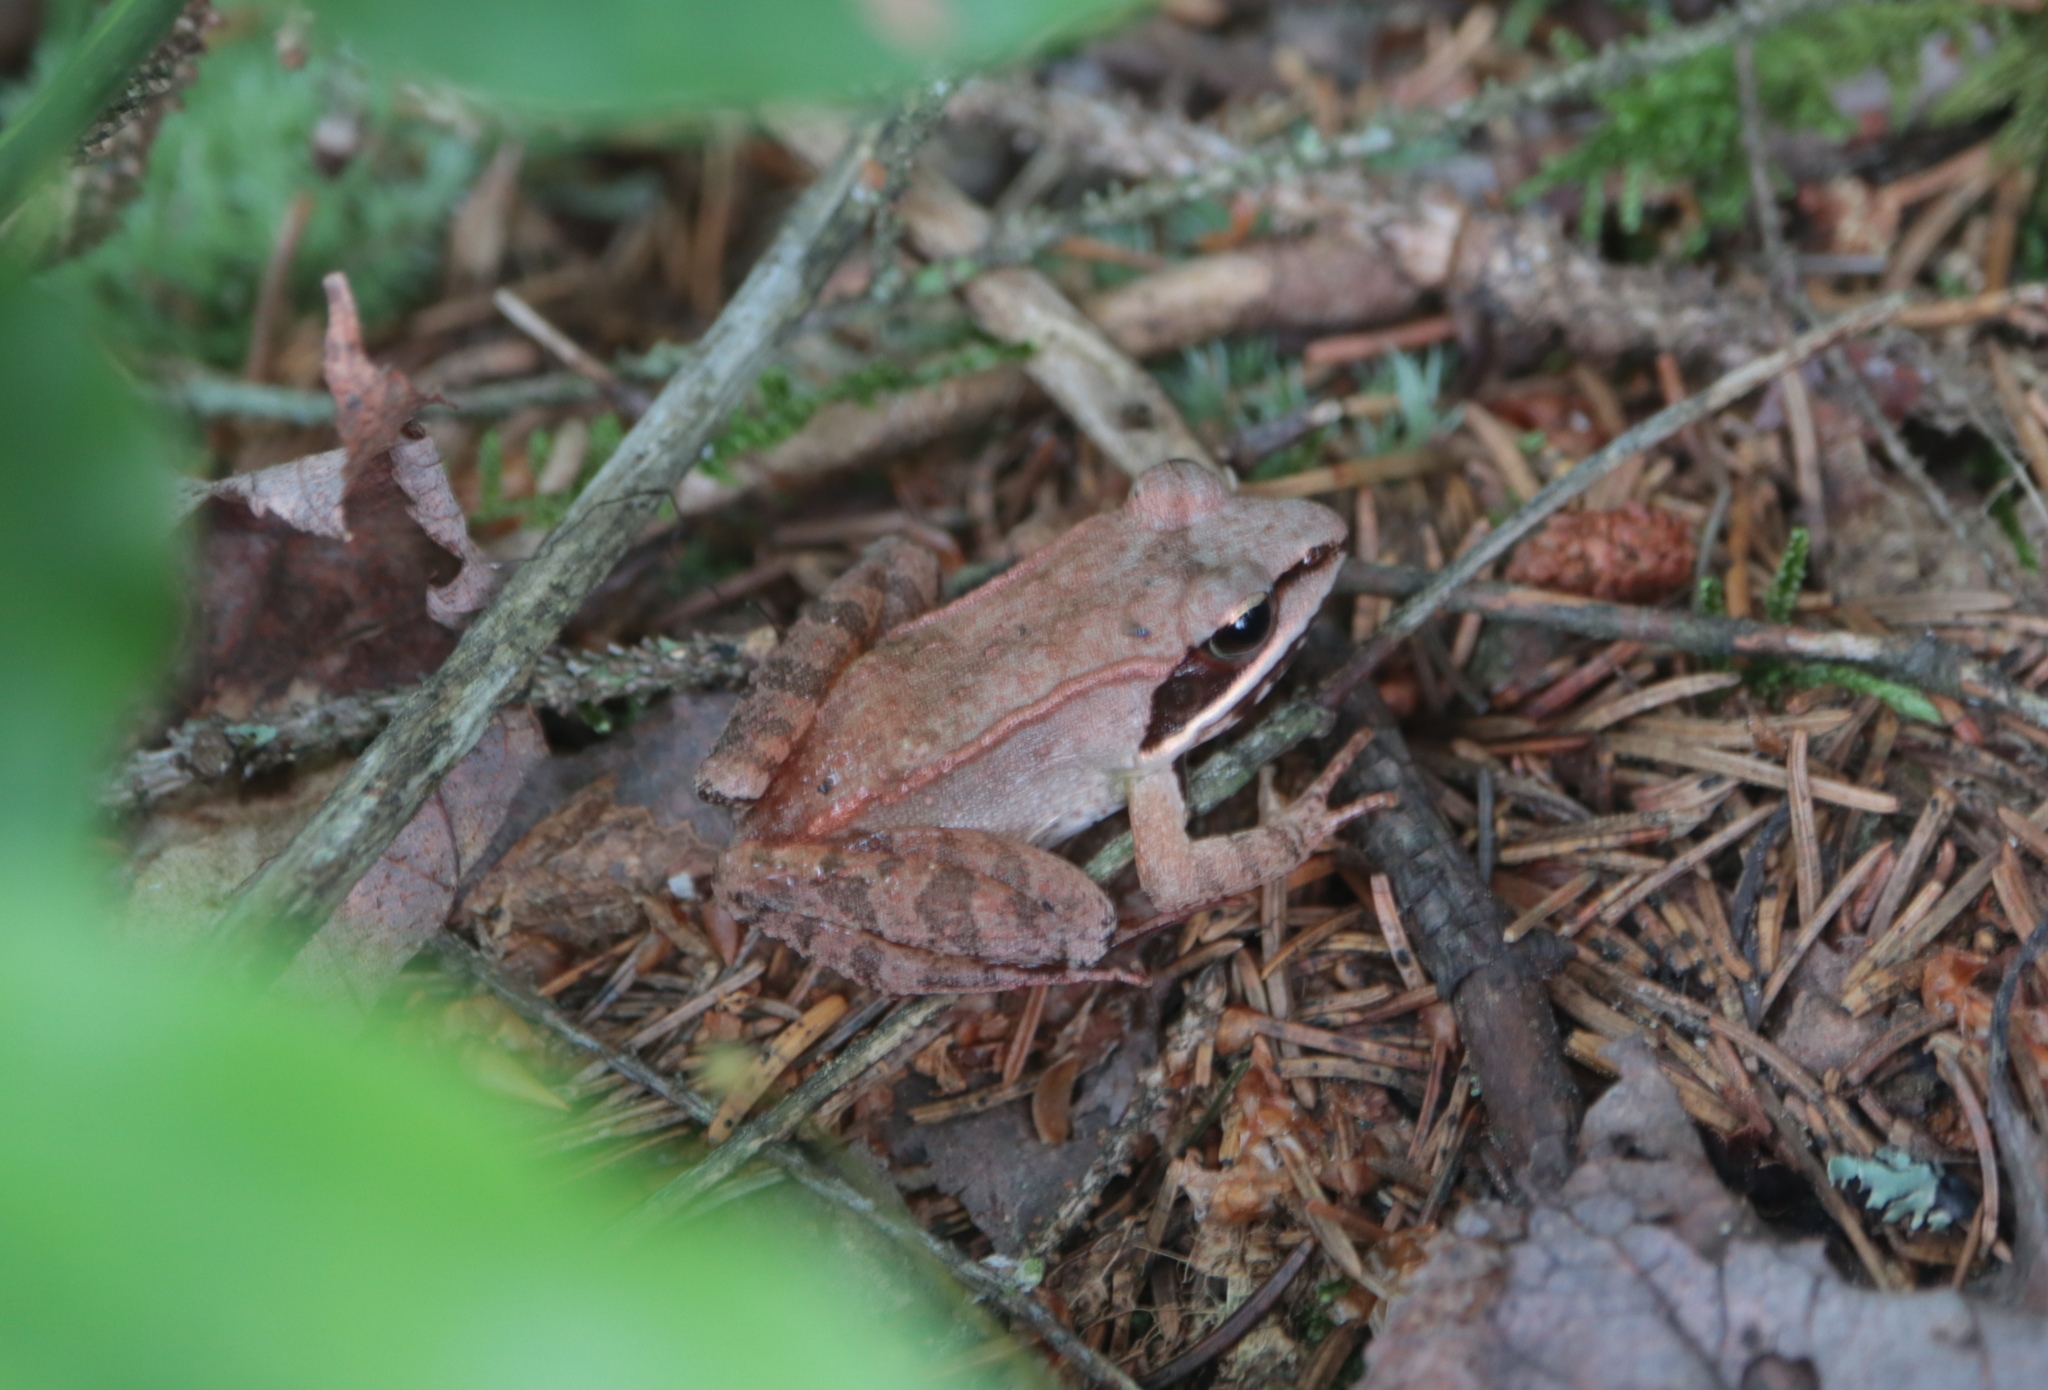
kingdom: Animalia
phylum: Chordata
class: Amphibia
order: Anura
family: Ranidae
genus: Lithobates
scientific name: Lithobates sylvaticus
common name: Wood frog
